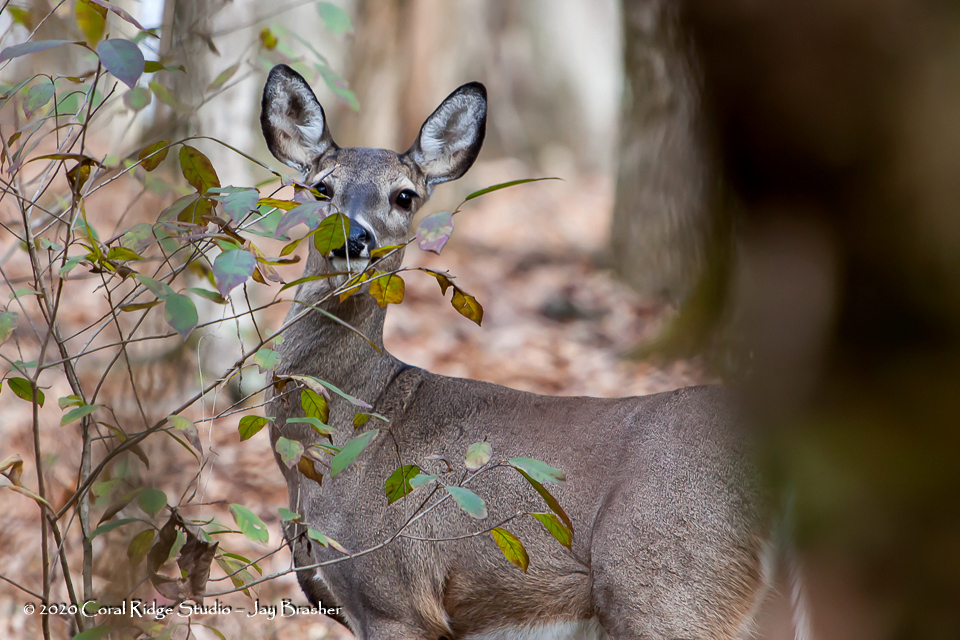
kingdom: Animalia
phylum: Chordata
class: Mammalia
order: Artiodactyla
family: Cervidae
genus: Odocoileus
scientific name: Odocoileus virginianus
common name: White-tailed deer
